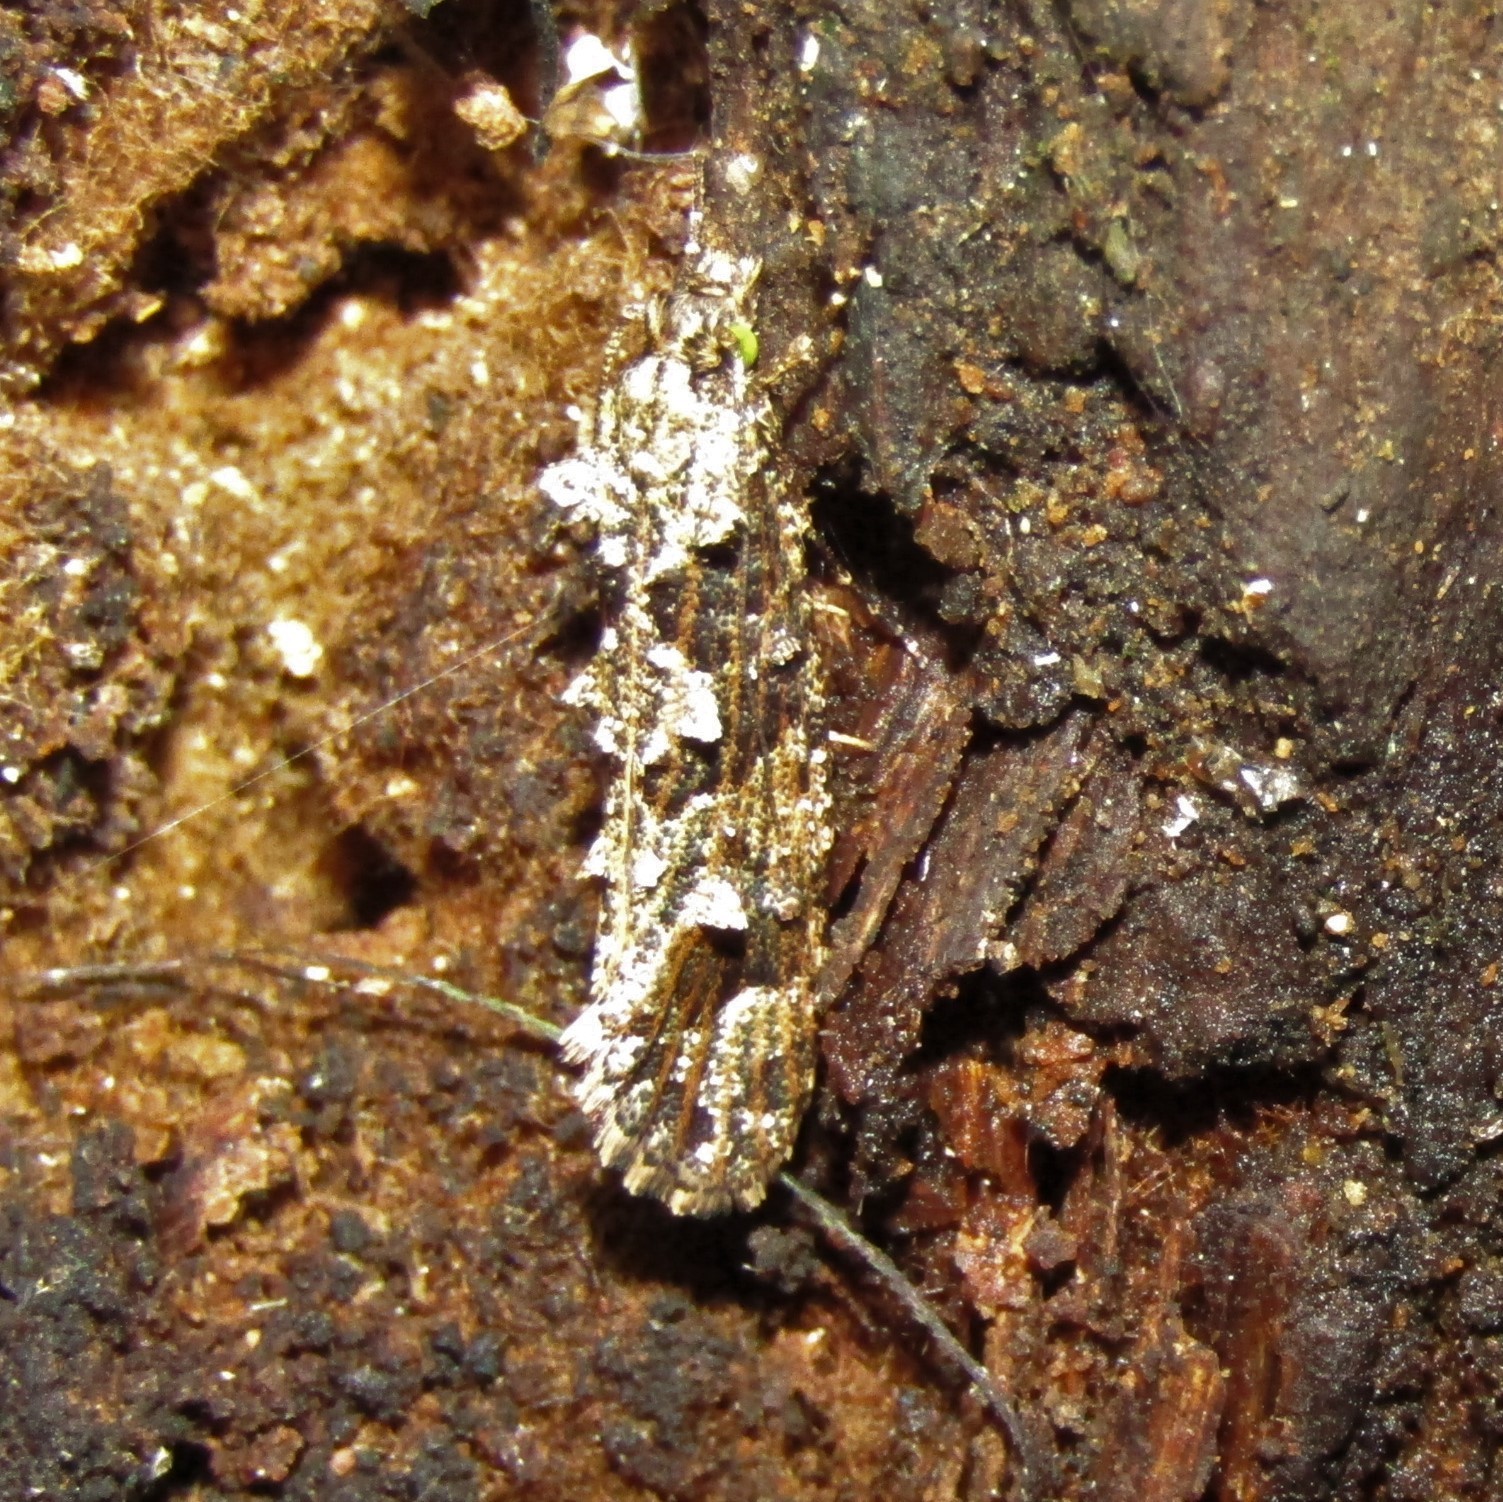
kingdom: Animalia
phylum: Arthropoda
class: Insecta
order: Lepidoptera
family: Tineidae
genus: Lysiphragma
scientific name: Lysiphragma epixyla
